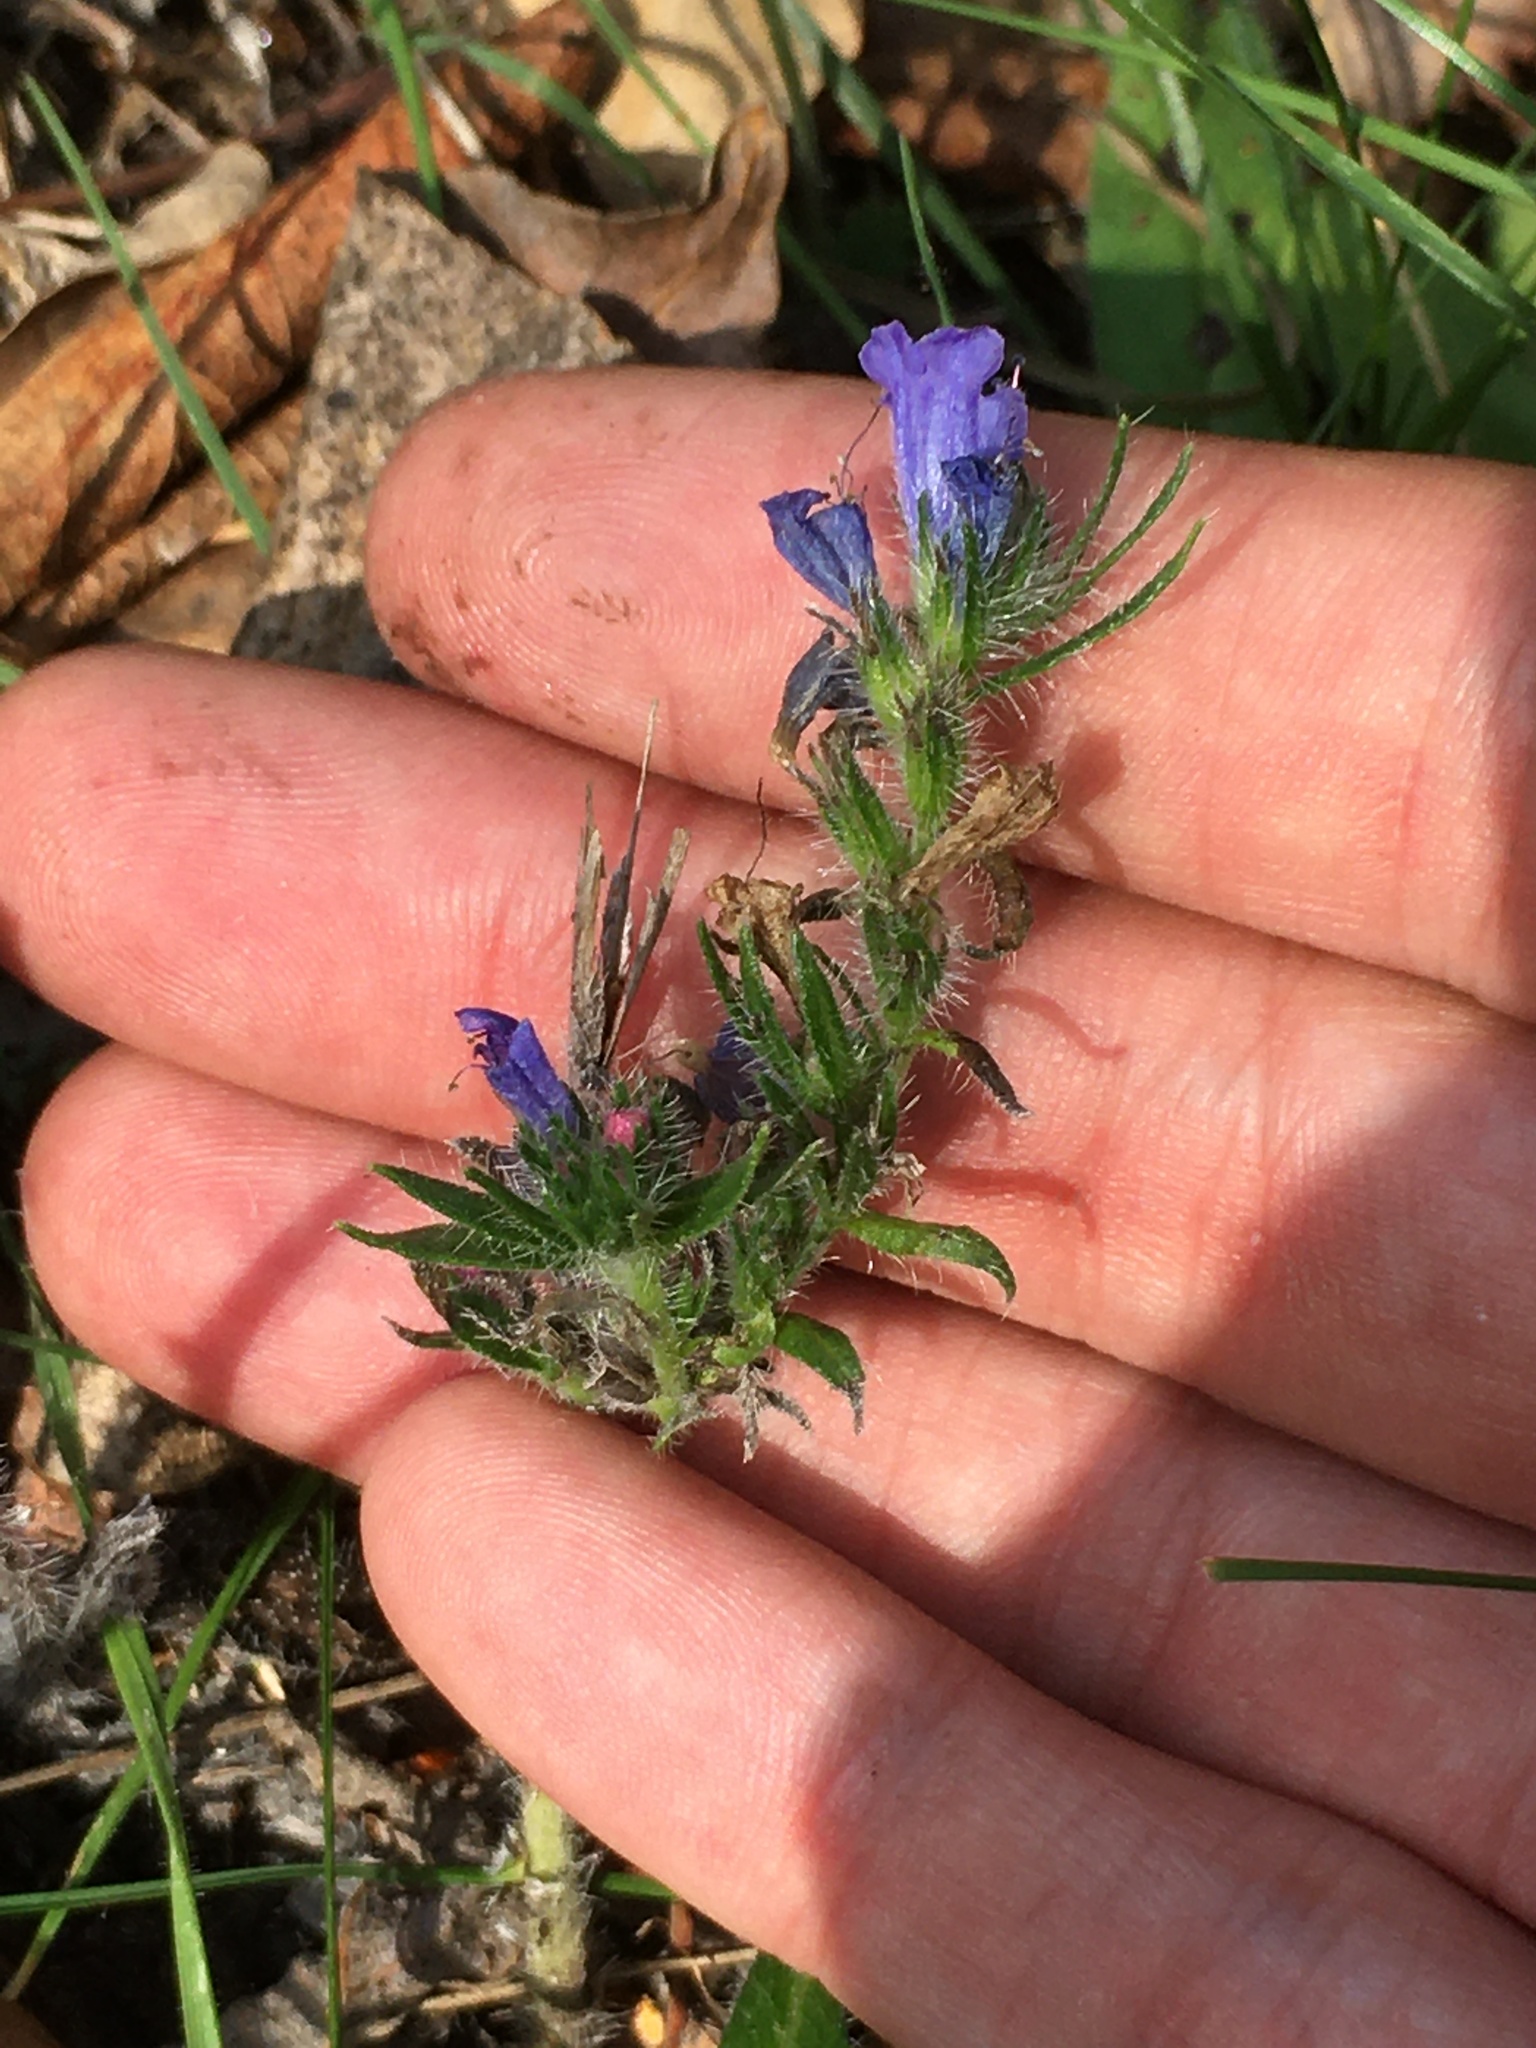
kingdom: Plantae
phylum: Tracheophyta
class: Magnoliopsida
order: Boraginales
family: Boraginaceae
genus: Echium
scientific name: Echium vulgare
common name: Common viper's bugloss
